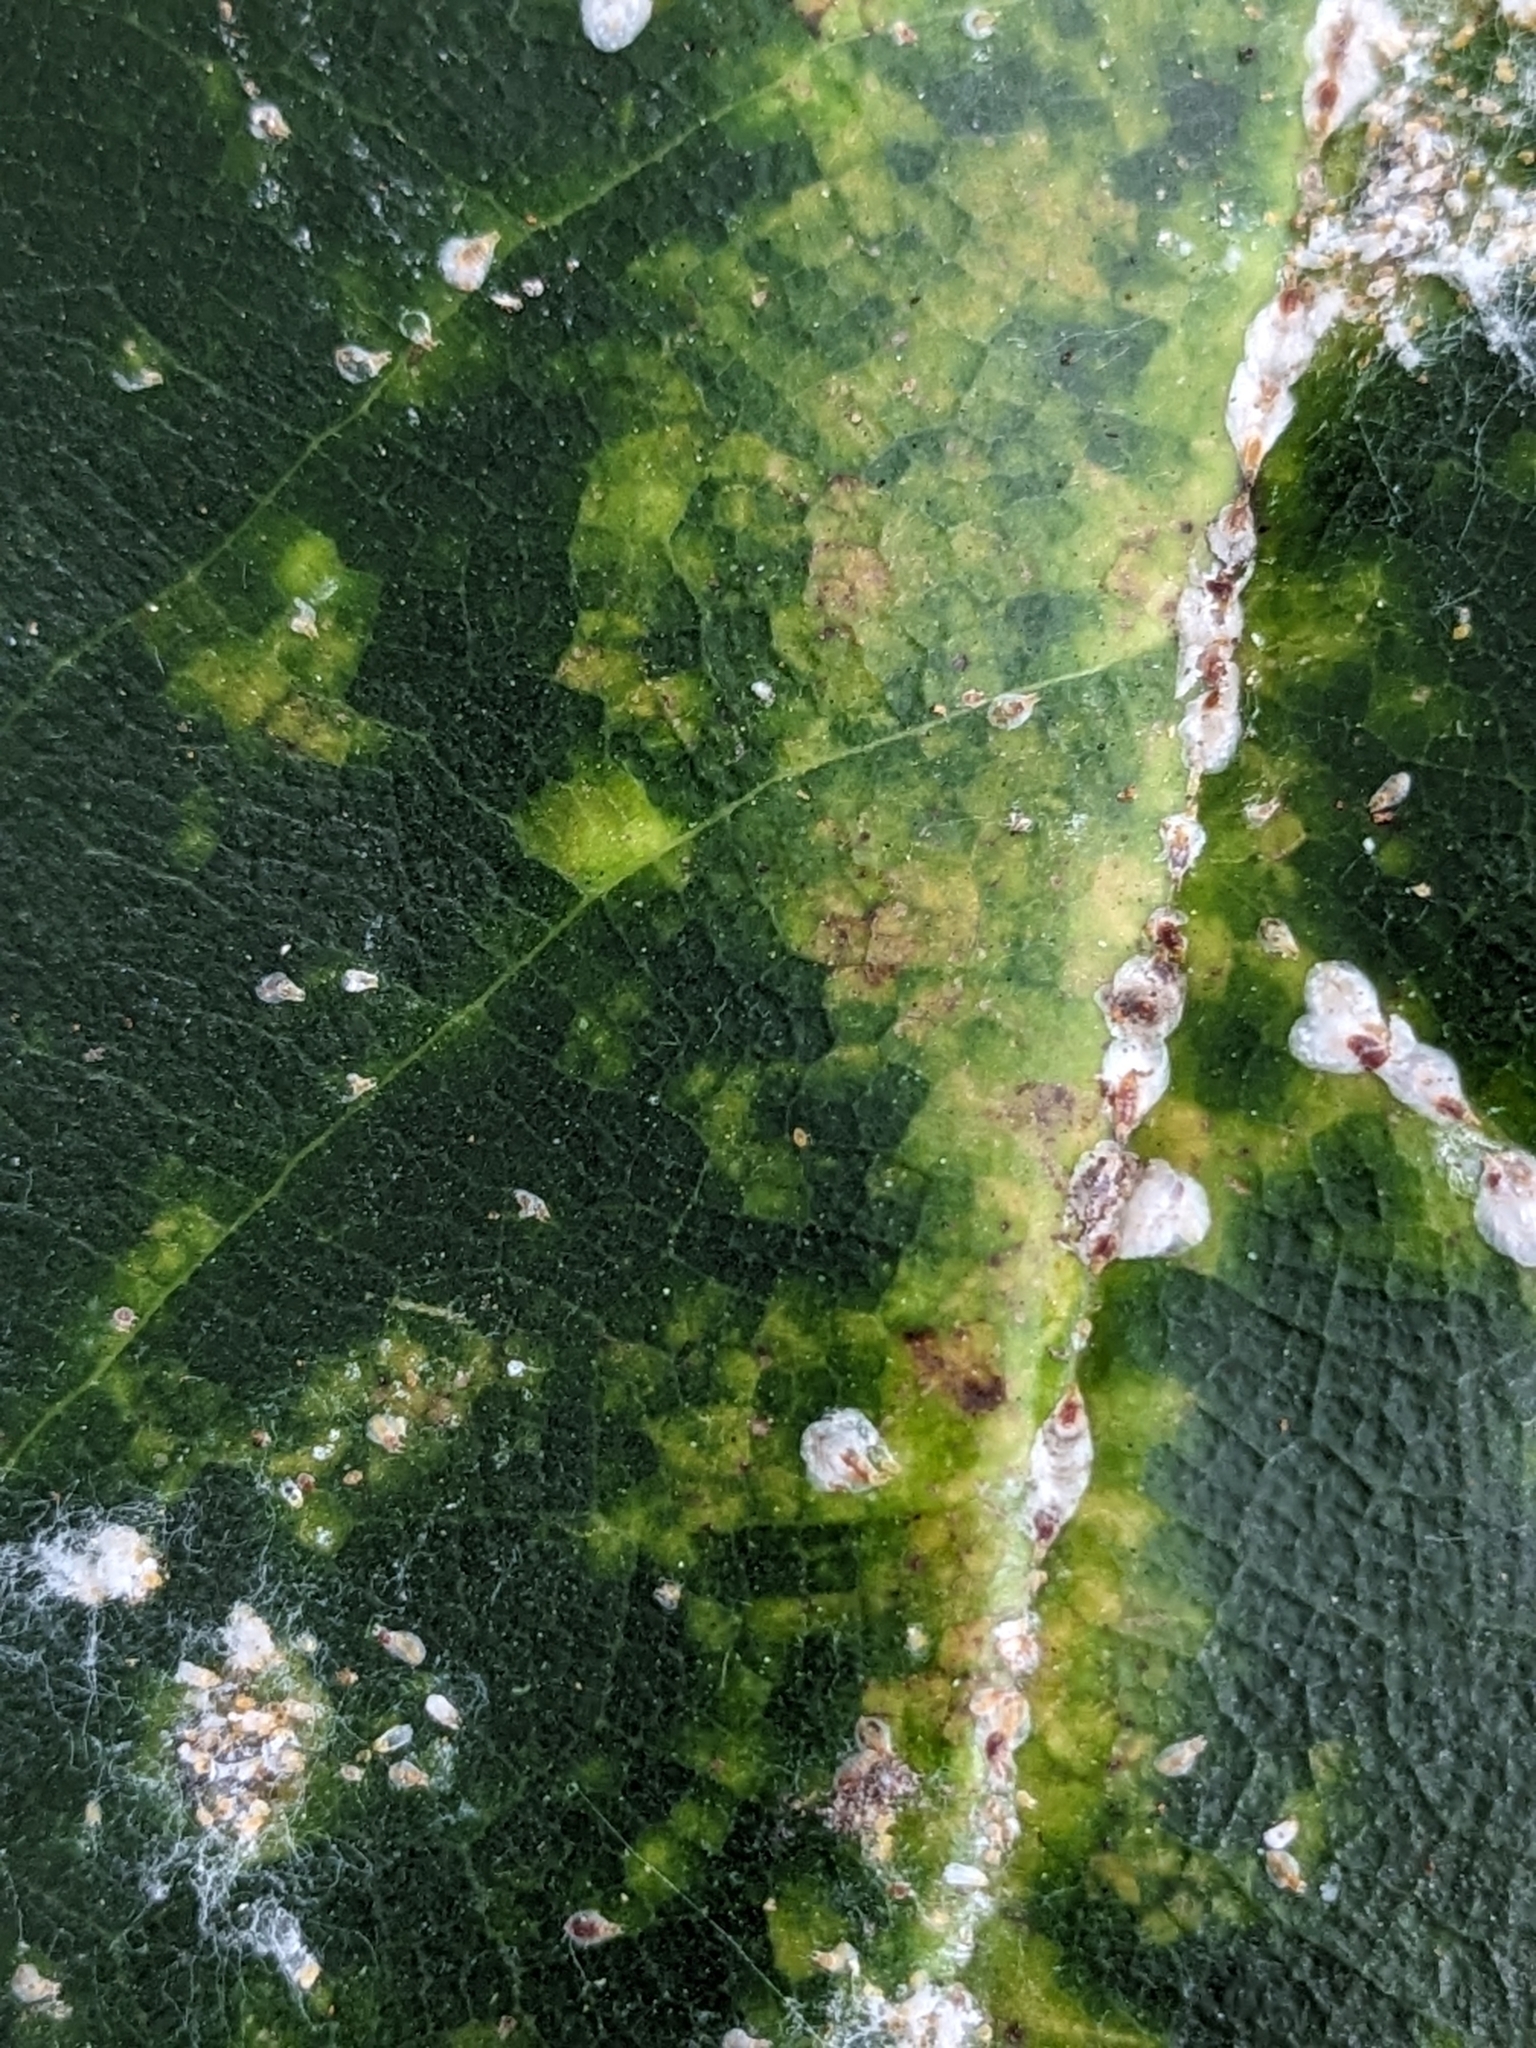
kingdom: Animalia
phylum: Arthropoda
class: Insecta
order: Hemiptera
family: Diaspididae
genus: Pseudaulacaspis
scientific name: Pseudaulacaspis cockerelli
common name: False oleander scale
